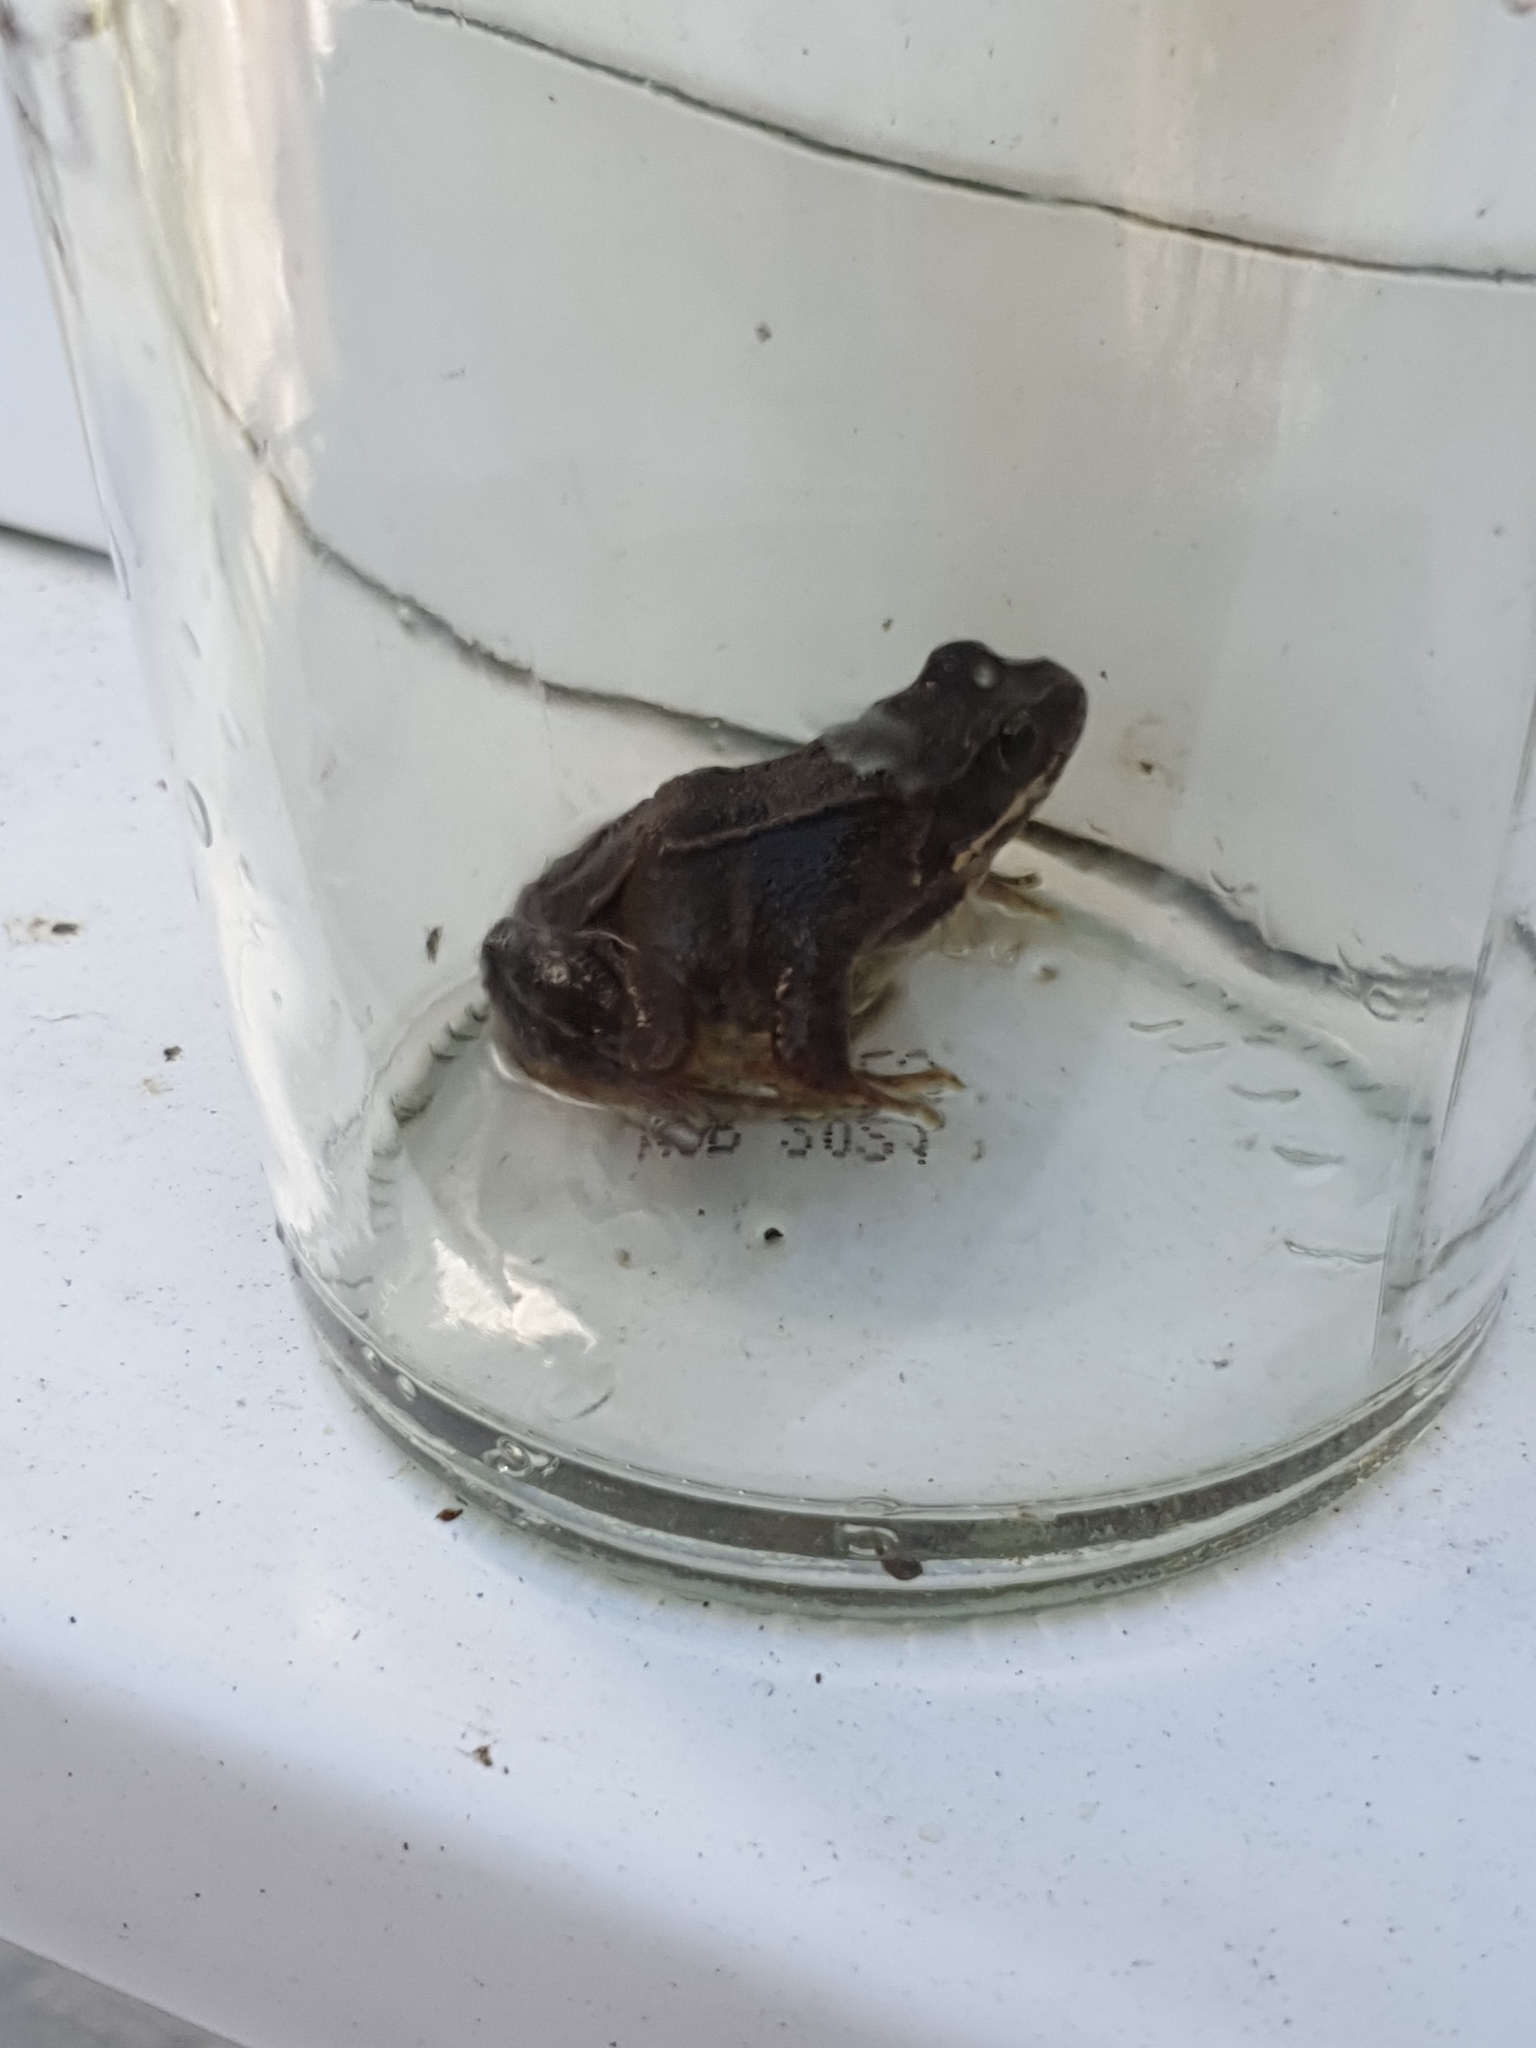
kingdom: Animalia
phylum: Chordata
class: Amphibia
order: Anura
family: Ranidae
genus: Rana
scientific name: Rana temporaria
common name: Common frog
